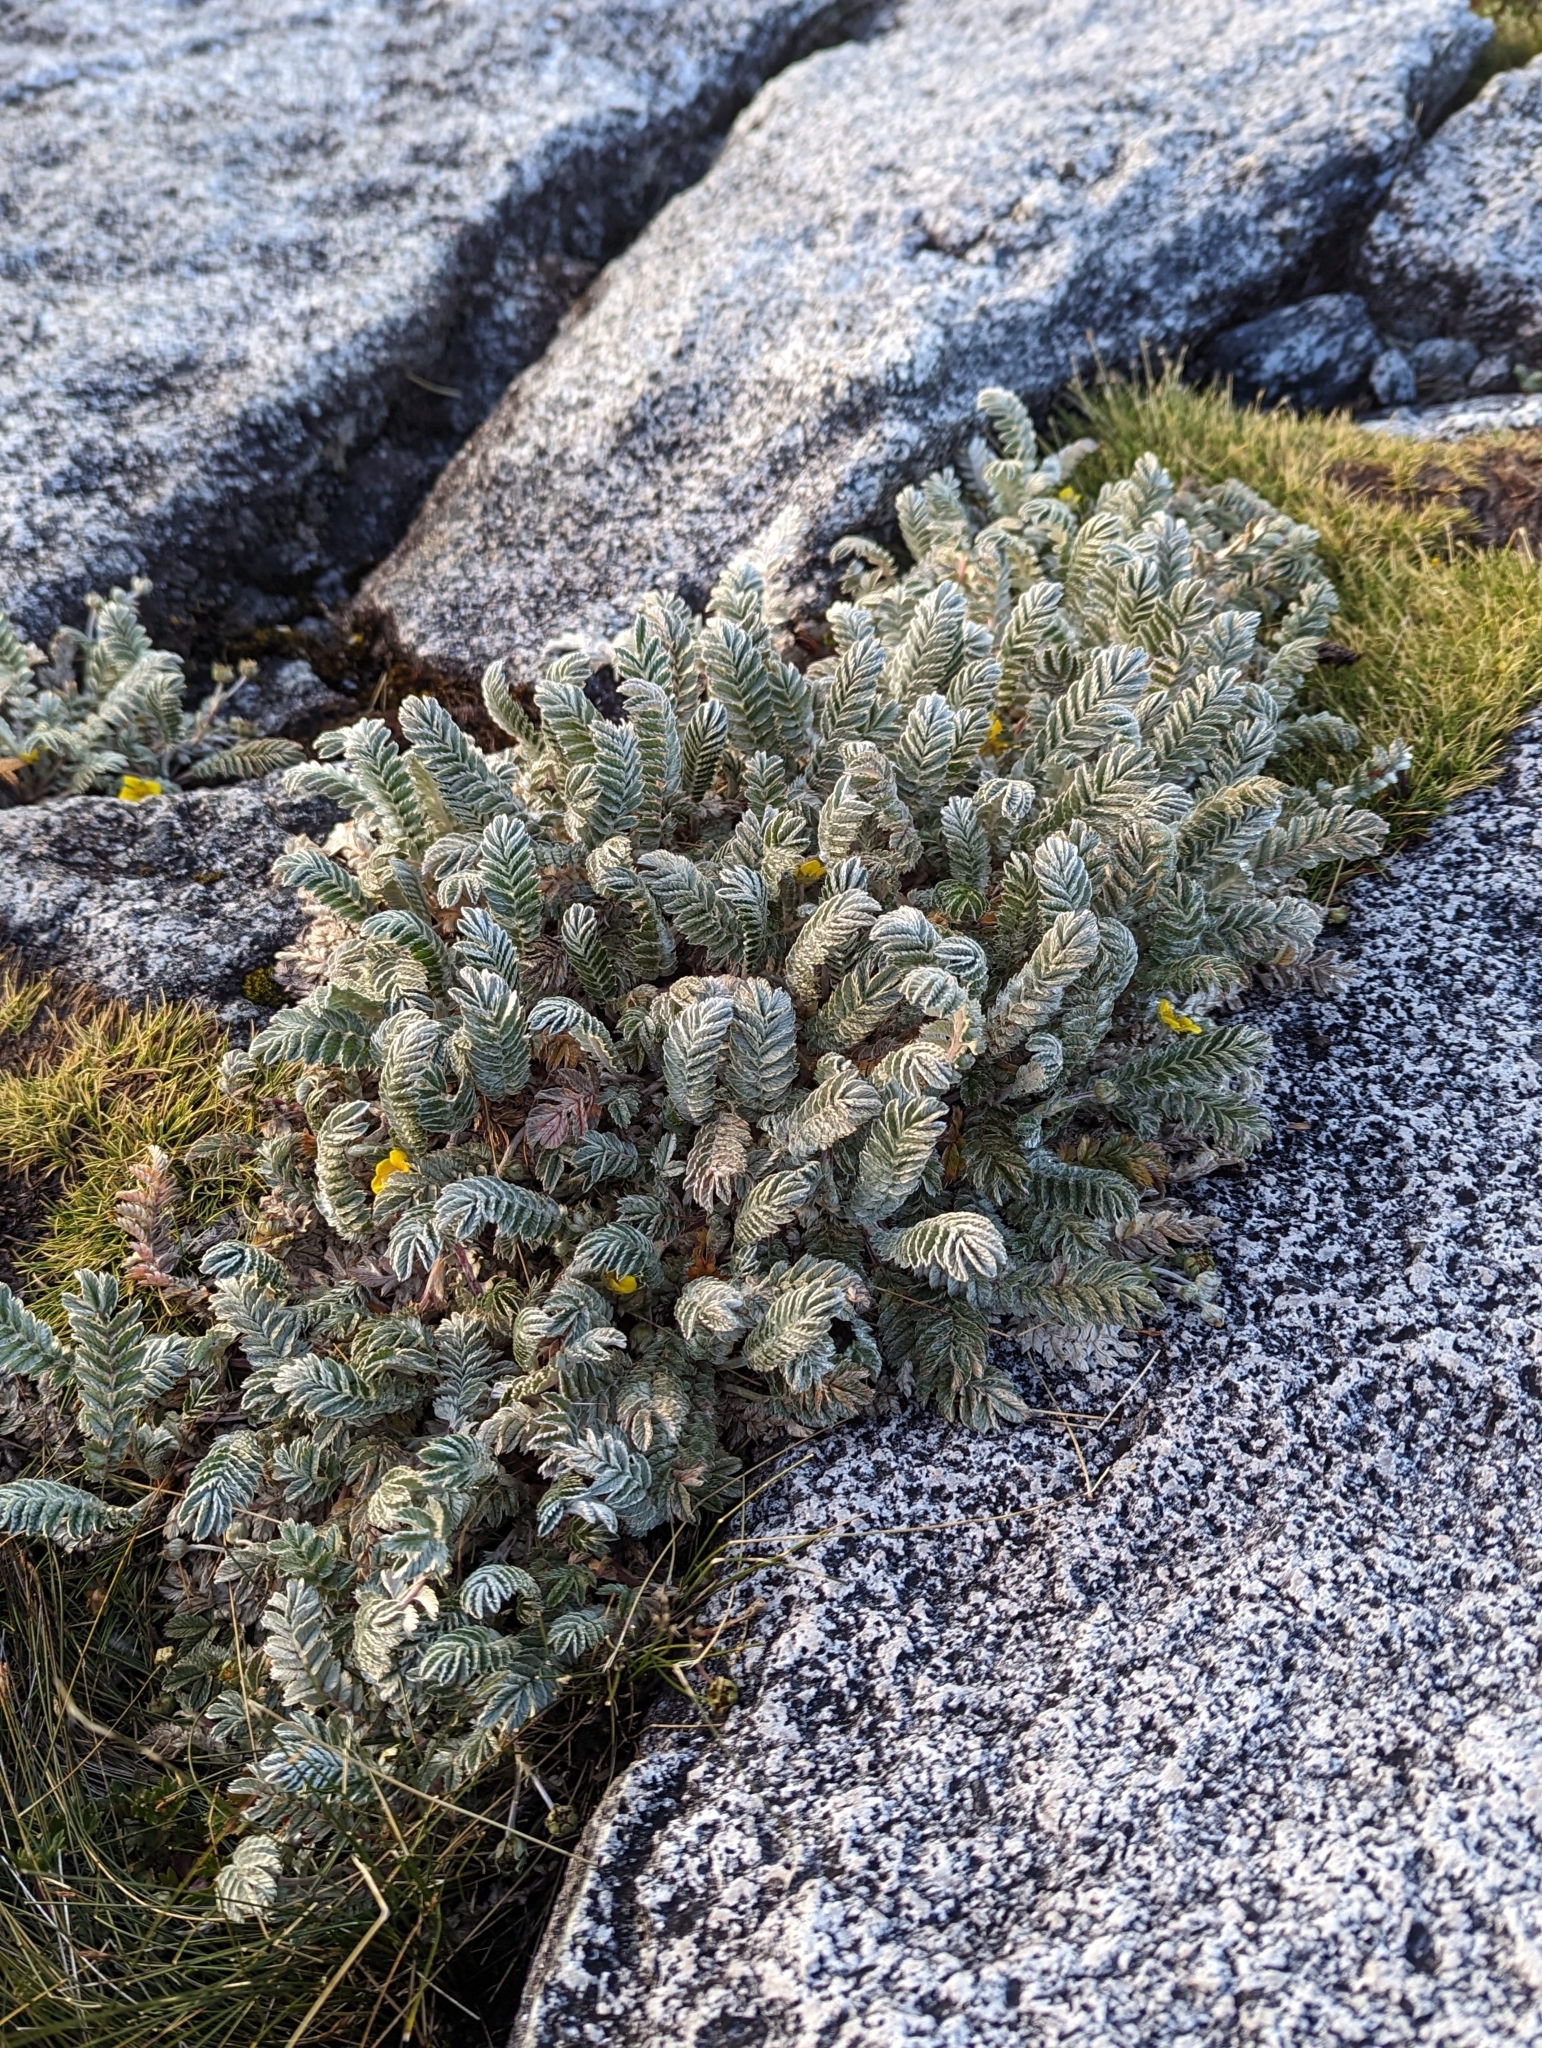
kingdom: Plantae
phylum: Tracheophyta
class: Magnoliopsida
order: Rosales
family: Rosaceae
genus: Argentina
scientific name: Argentina borneensis
